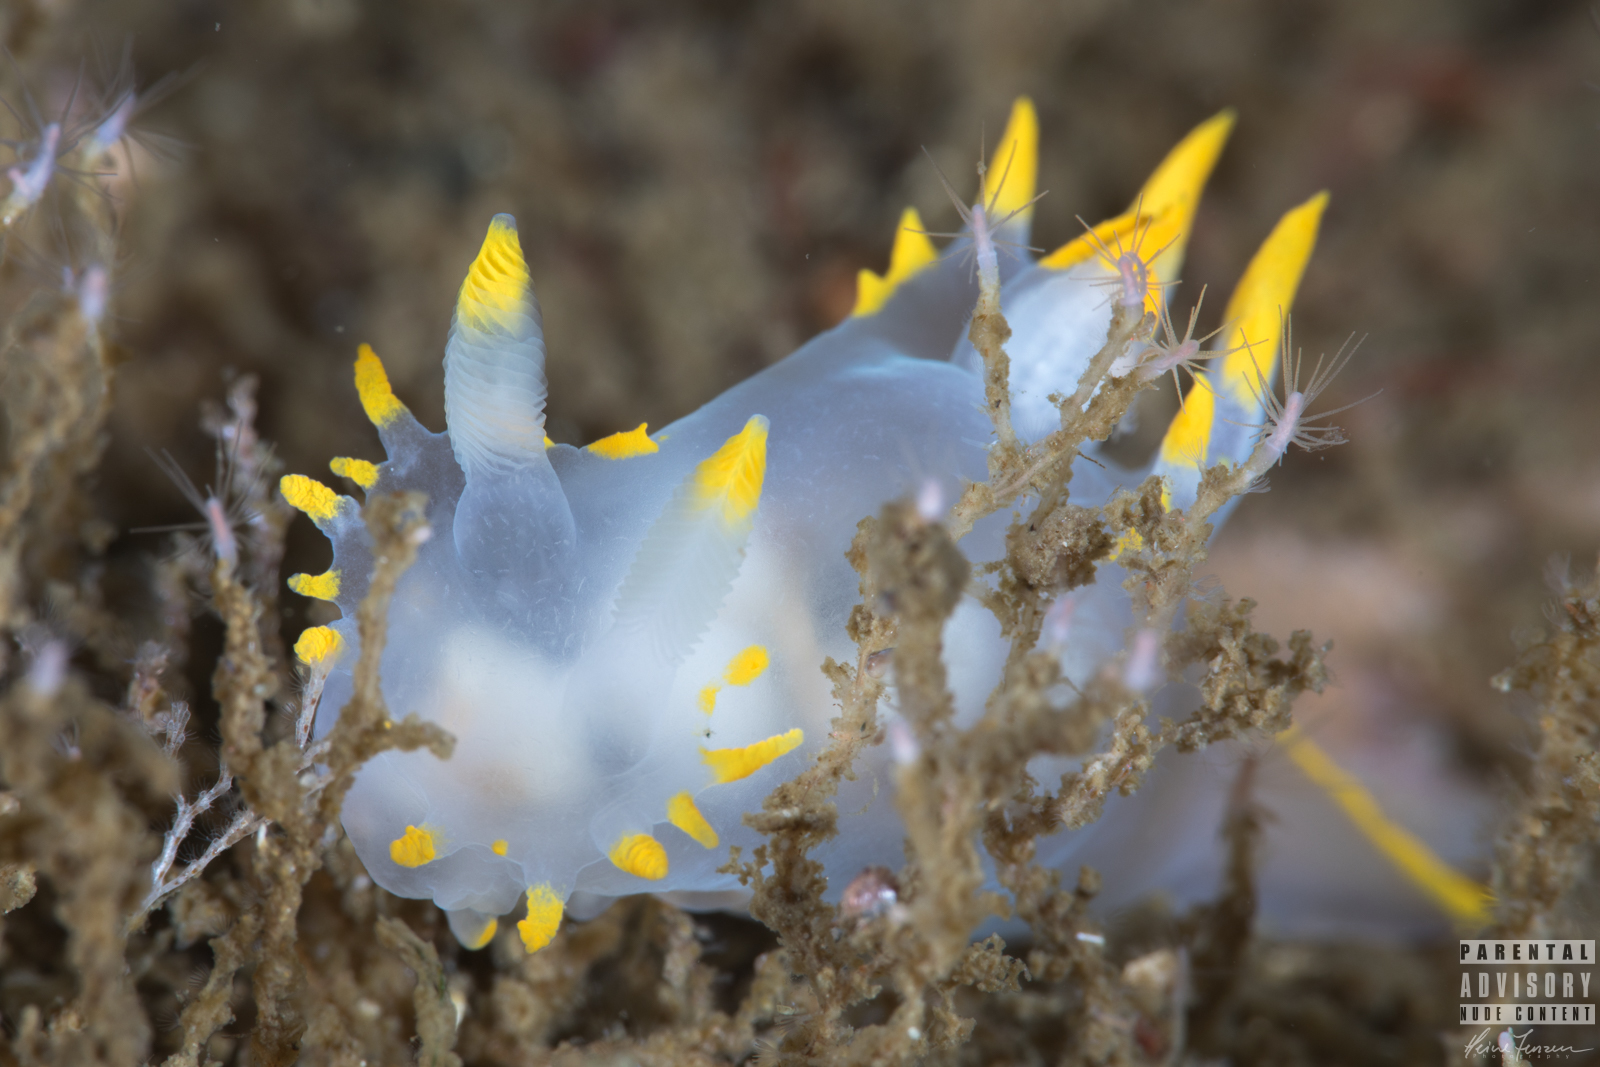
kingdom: Animalia
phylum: Mollusca
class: Gastropoda
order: Nudibranchia
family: Polyceridae
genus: Polycera
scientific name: Polycera faeroensis
